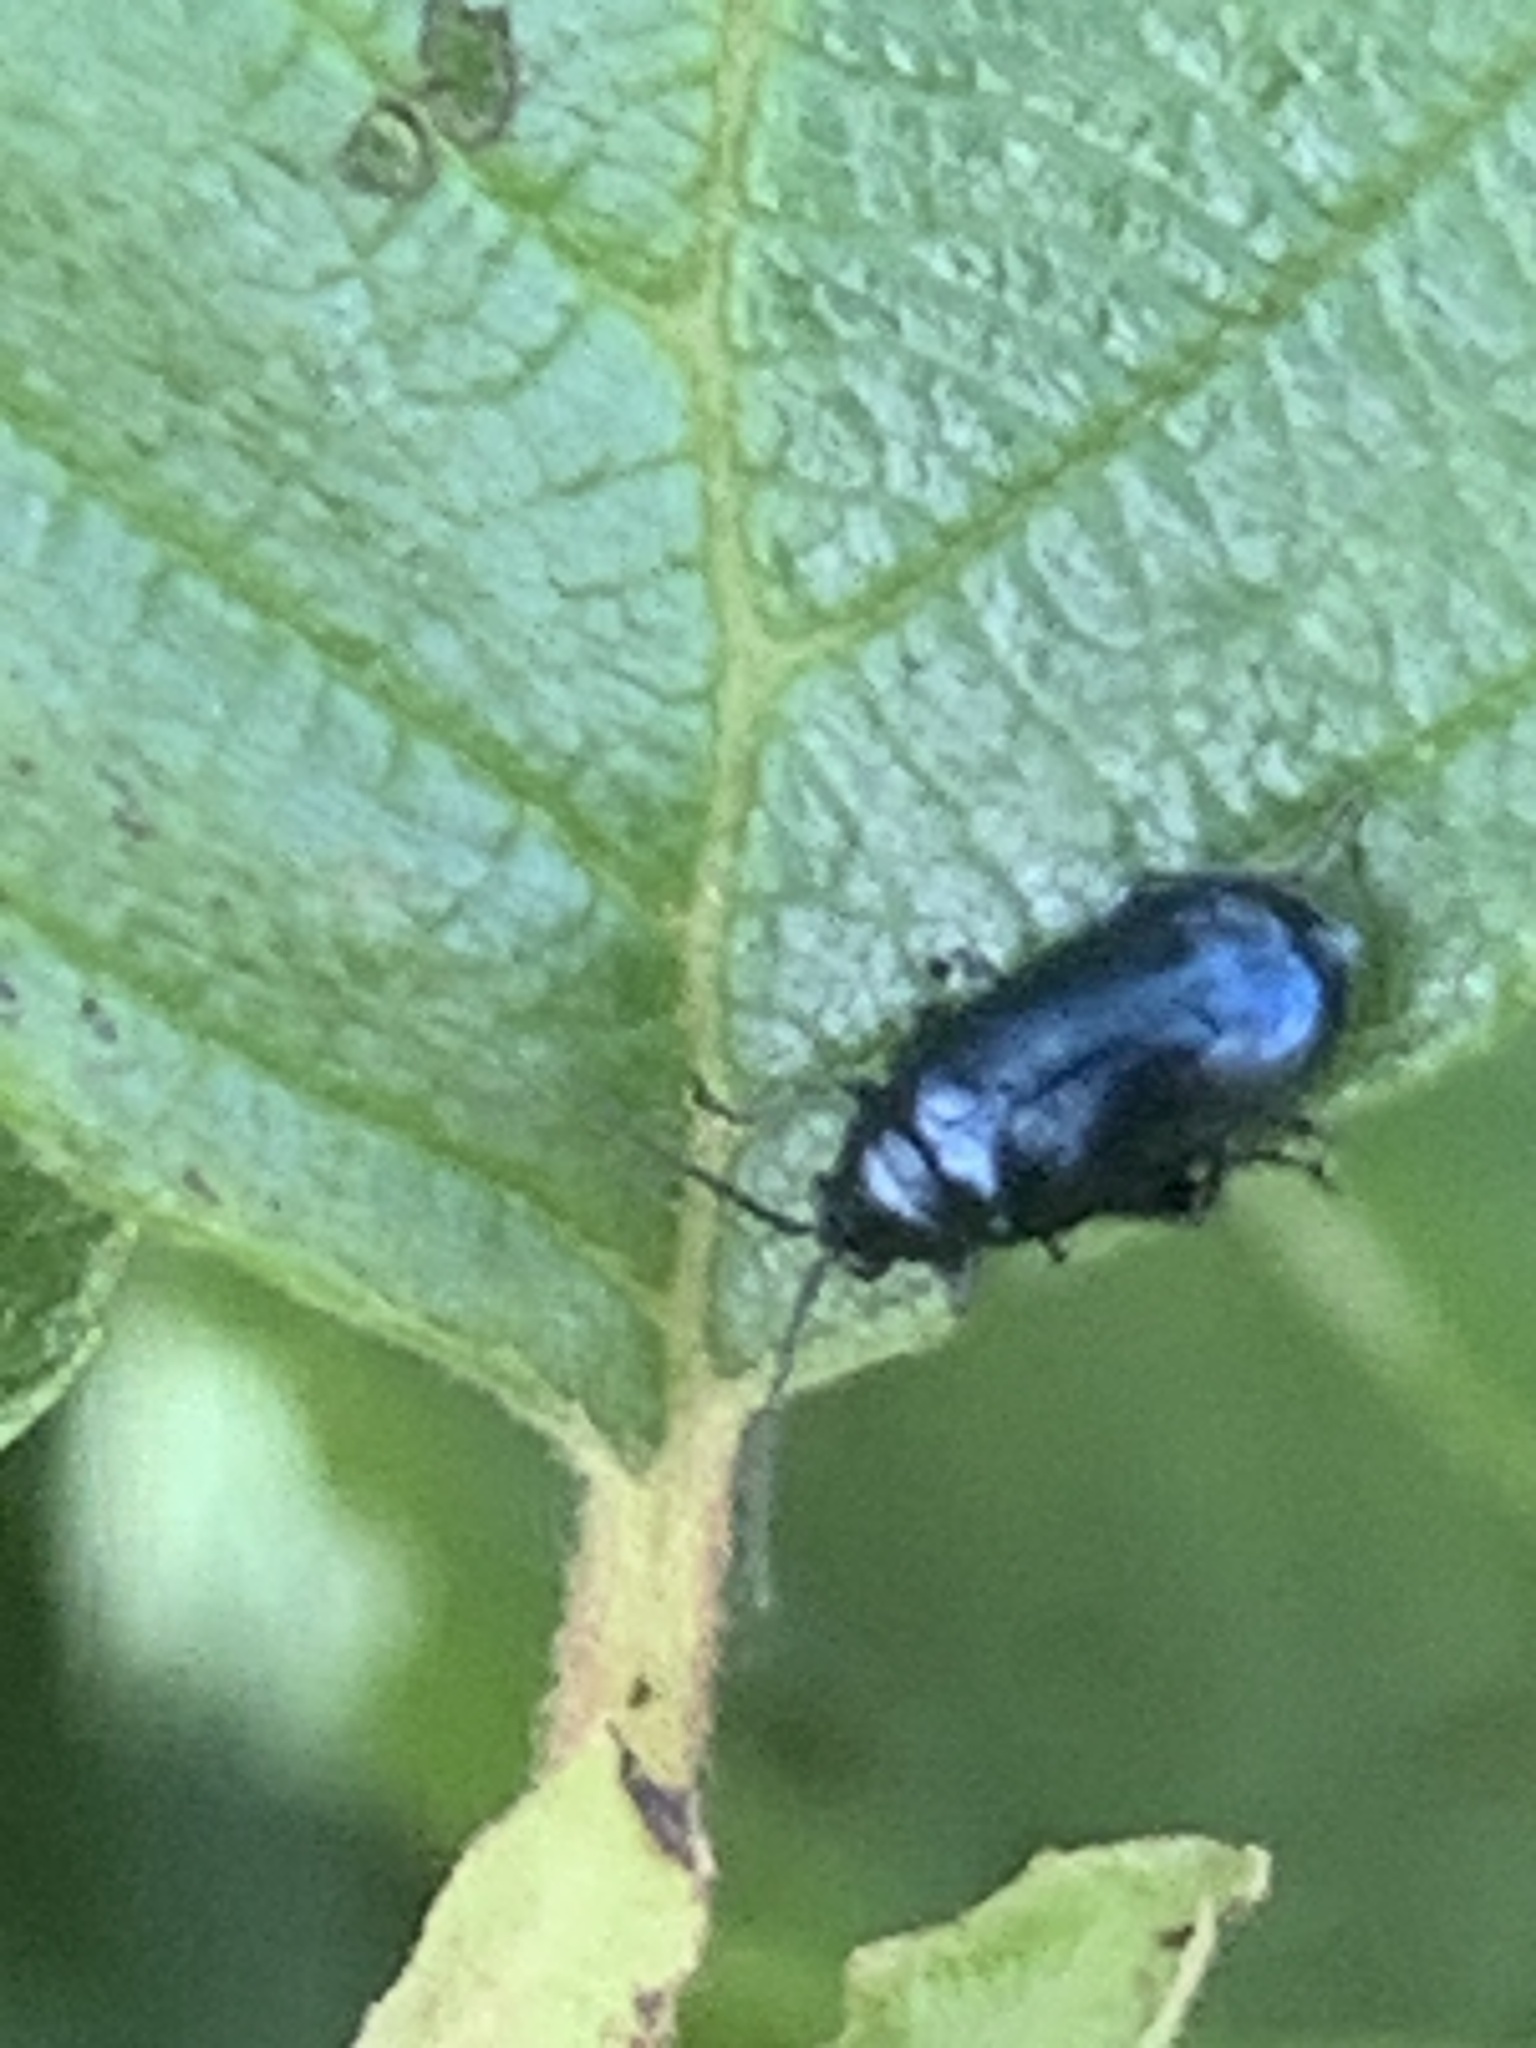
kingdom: Animalia
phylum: Arthropoda
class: Insecta
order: Coleoptera
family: Chrysomelidae
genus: Altica
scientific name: Altica ambiens
